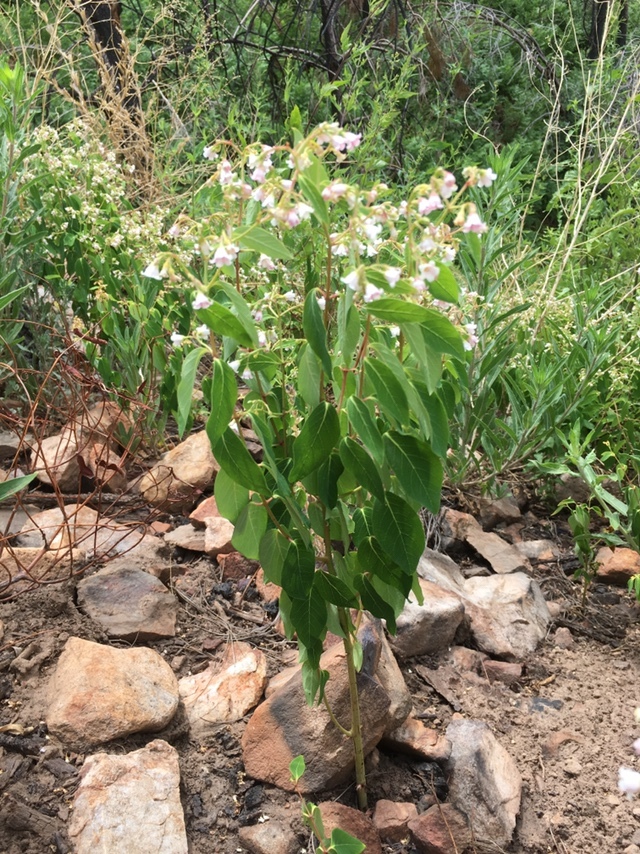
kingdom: Plantae
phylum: Tracheophyta
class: Magnoliopsida
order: Gentianales
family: Apocynaceae
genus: Apocynum
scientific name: Apocynum androsaemifolium
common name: Spreading dogbane
